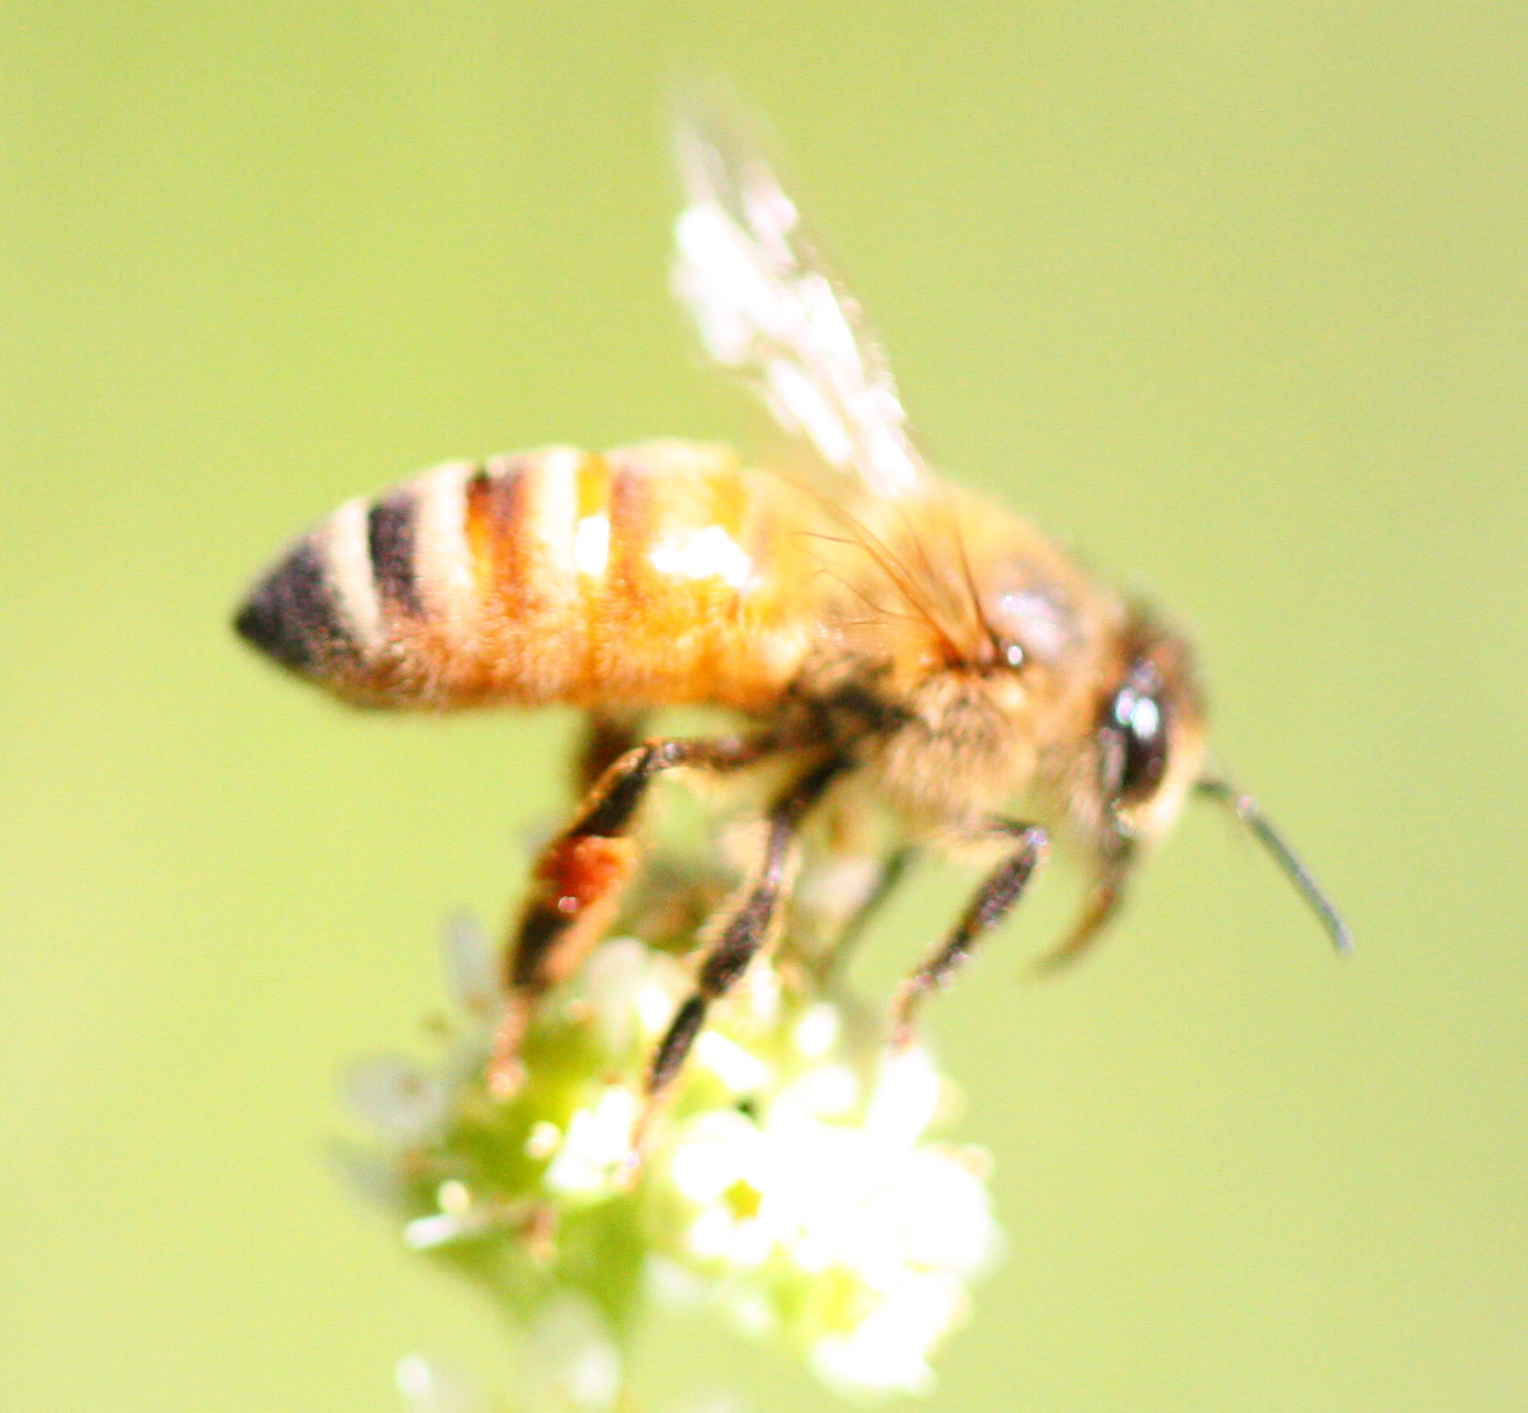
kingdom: Animalia
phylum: Arthropoda
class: Insecta
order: Hymenoptera
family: Apidae
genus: Apis
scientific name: Apis mellifera
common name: Honey bee
